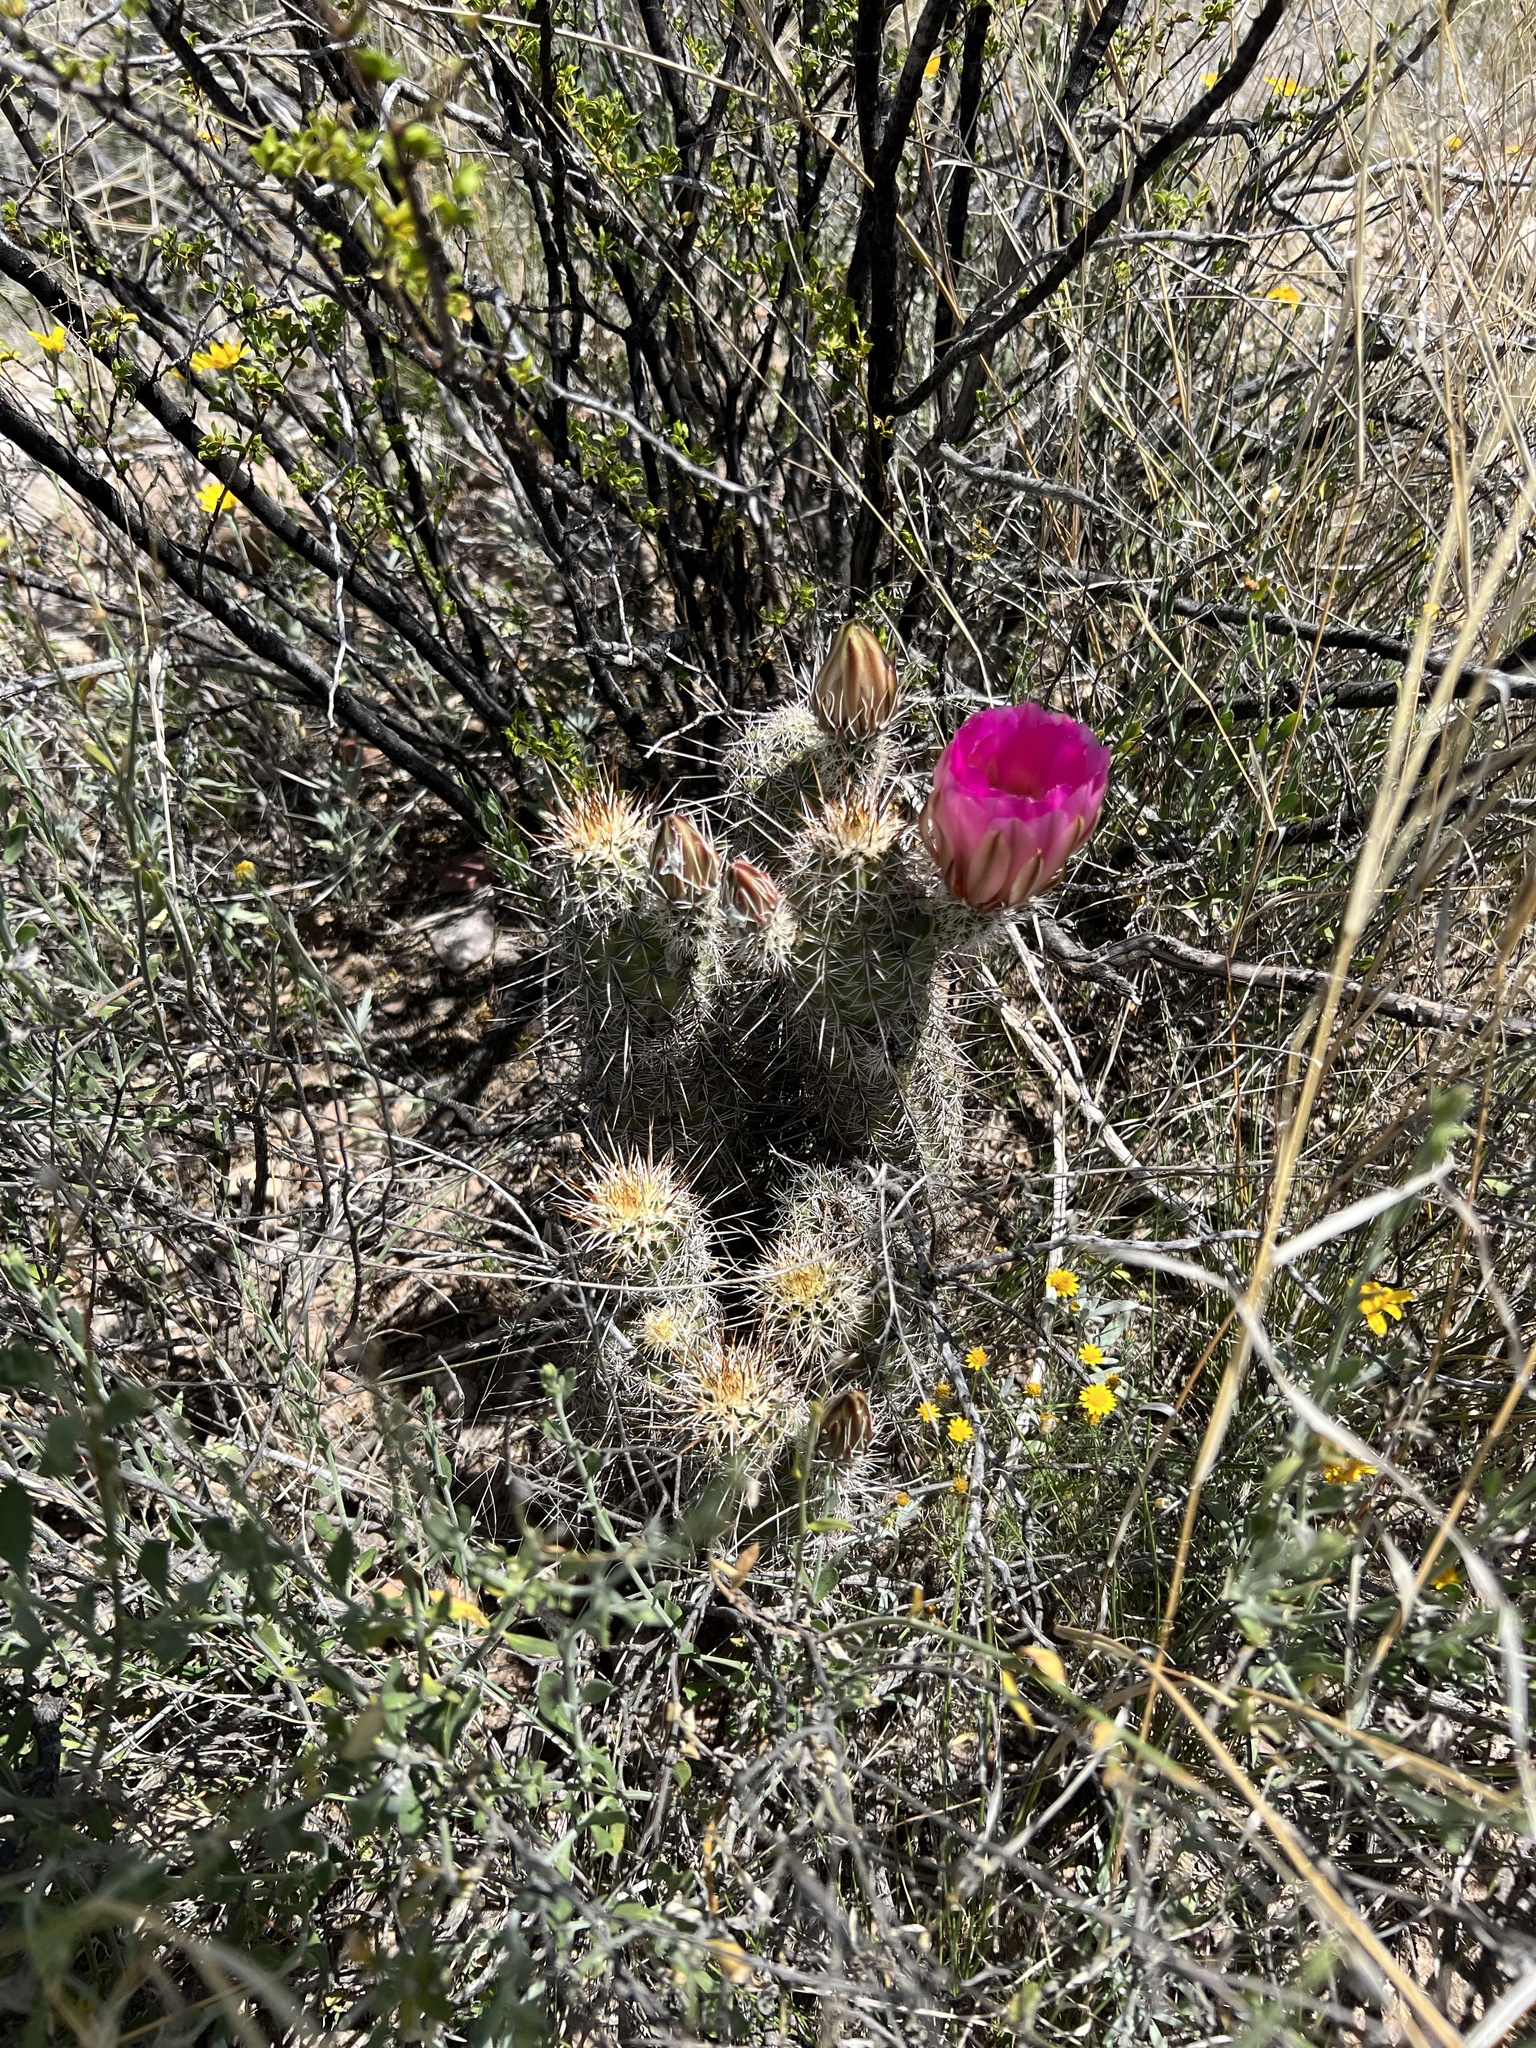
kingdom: Plantae
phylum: Tracheophyta
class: Magnoliopsida
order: Caryophyllales
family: Cactaceae
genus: Echinocereus
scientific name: Echinocereus fasciculatus
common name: Bundle hedgehog
